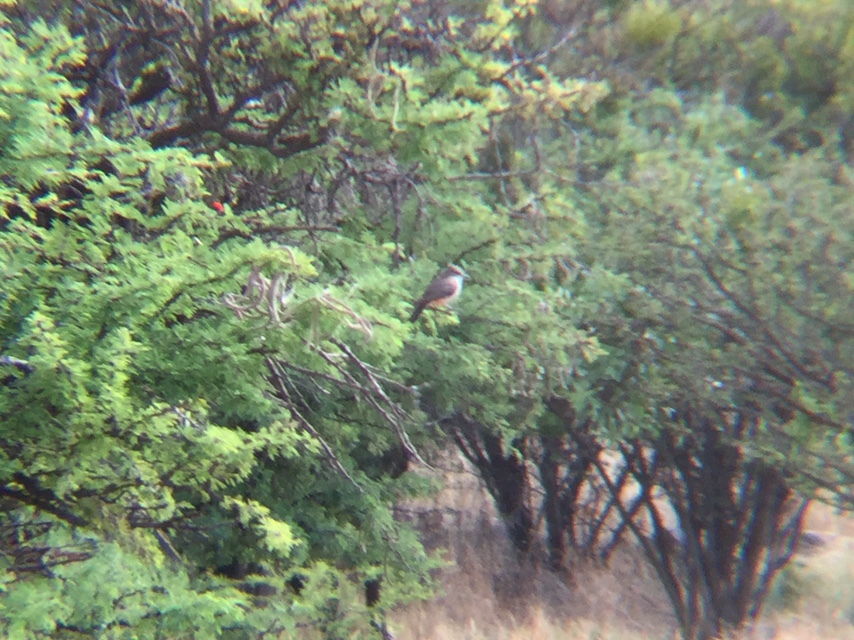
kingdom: Animalia
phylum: Chordata
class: Aves
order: Passeriformes
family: Tyrannidae
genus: Pyrocephalus
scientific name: Pyrocephalus rubinus
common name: Vermilion flycatcher
